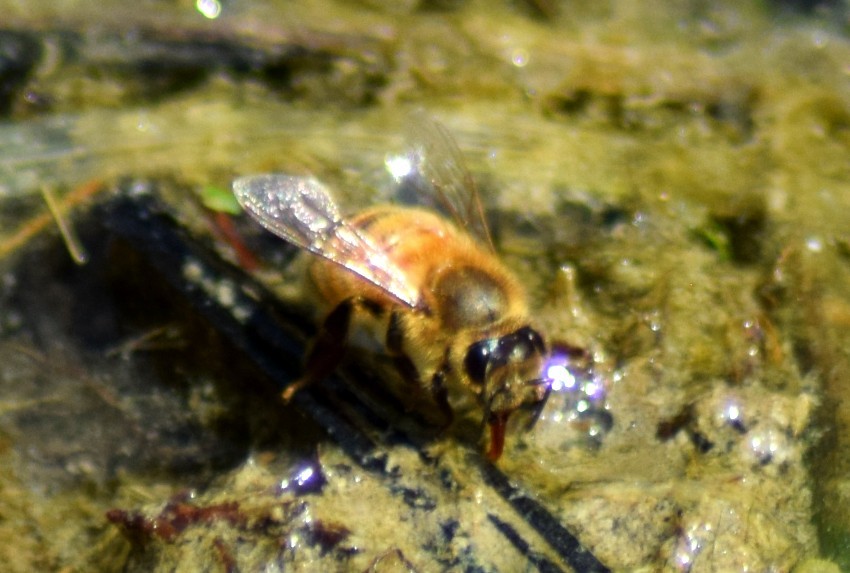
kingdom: Animalia
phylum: Arthropoda
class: Insecta
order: Hymenoptera
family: Apidae
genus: Apis
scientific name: Apis mellifera
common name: Honey bee
